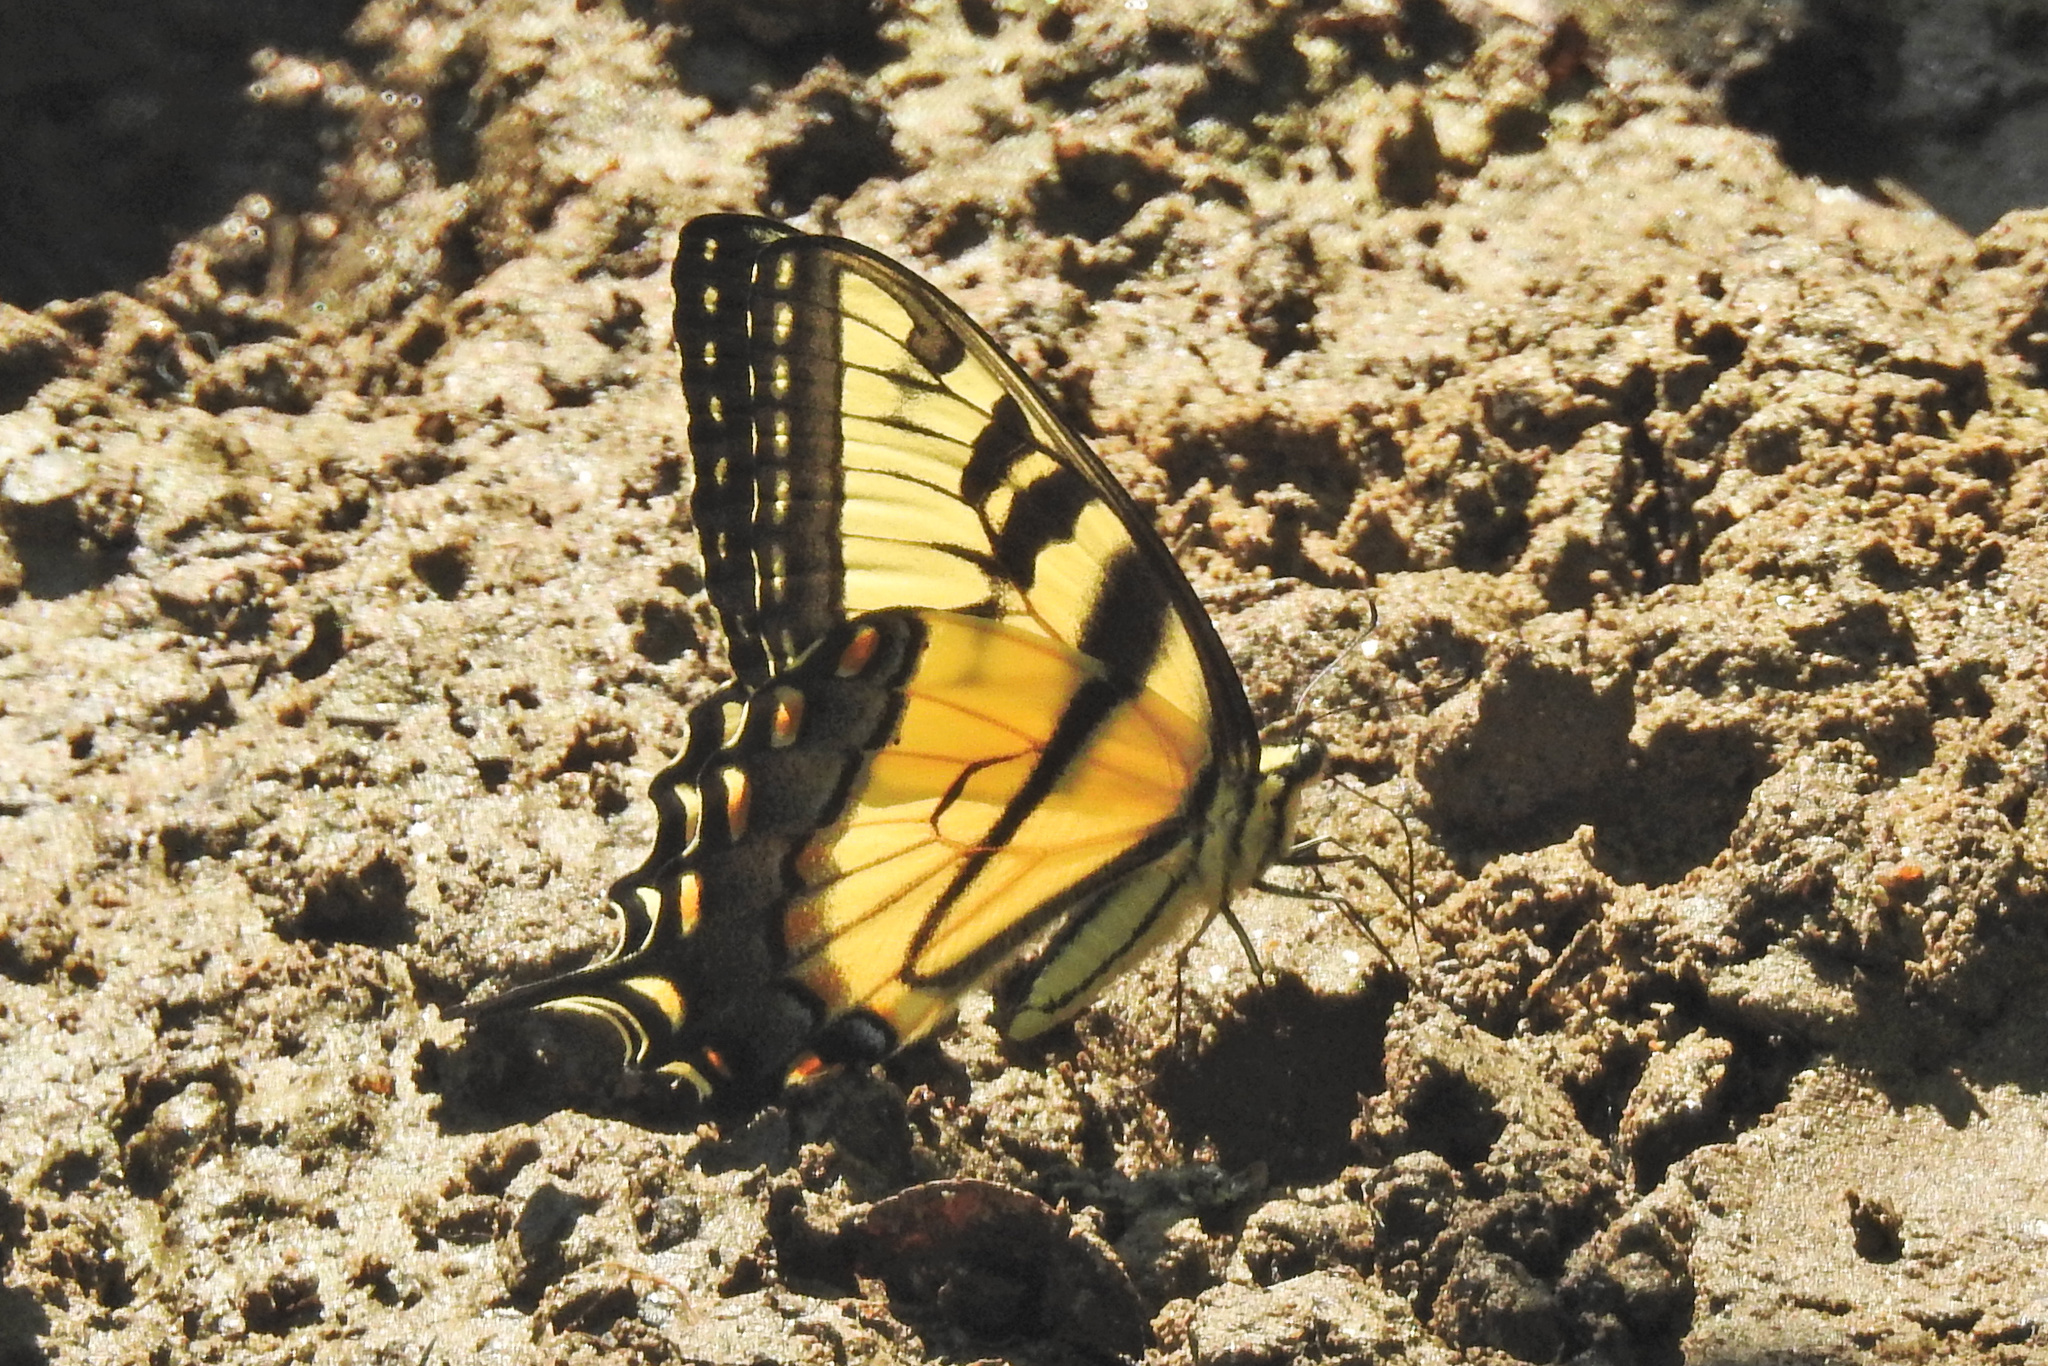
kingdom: Animalia
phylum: Arthropoda
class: Insecta
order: Lepidoptera
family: Papilionidae
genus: Papilio
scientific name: Papilio glaucus
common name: Tiger swallowtail
